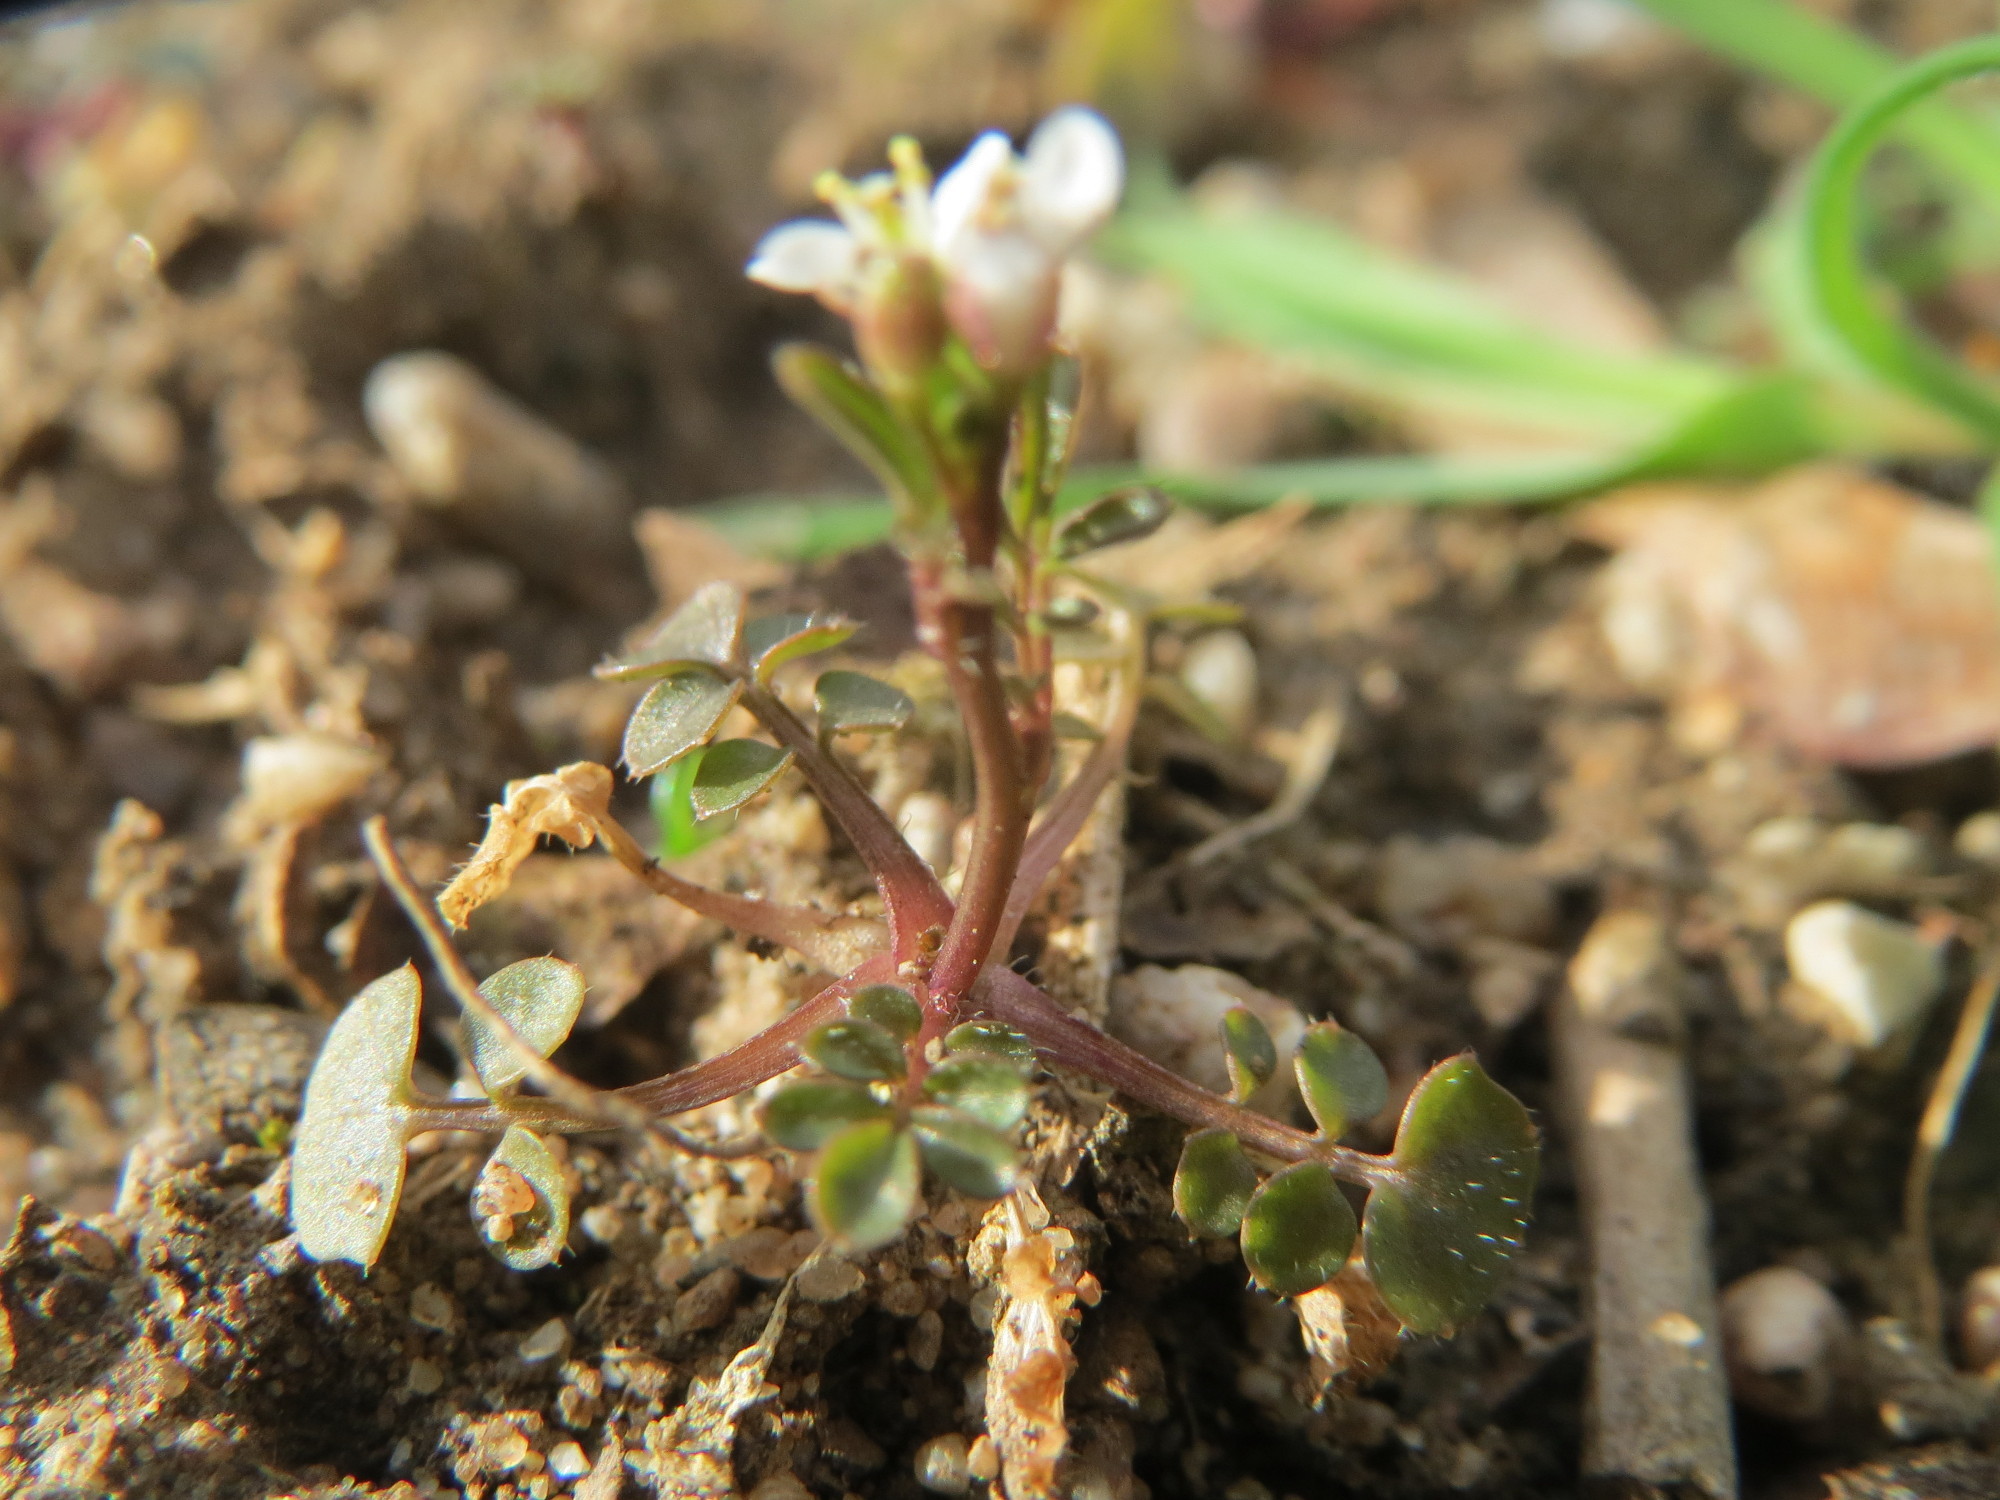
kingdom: Plantae
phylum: Tracheophyta
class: Magnoliopsida
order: Brassicales
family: Brassicaceae
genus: Cardamine
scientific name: Cardamine hirsuta
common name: Hairy bittercress
